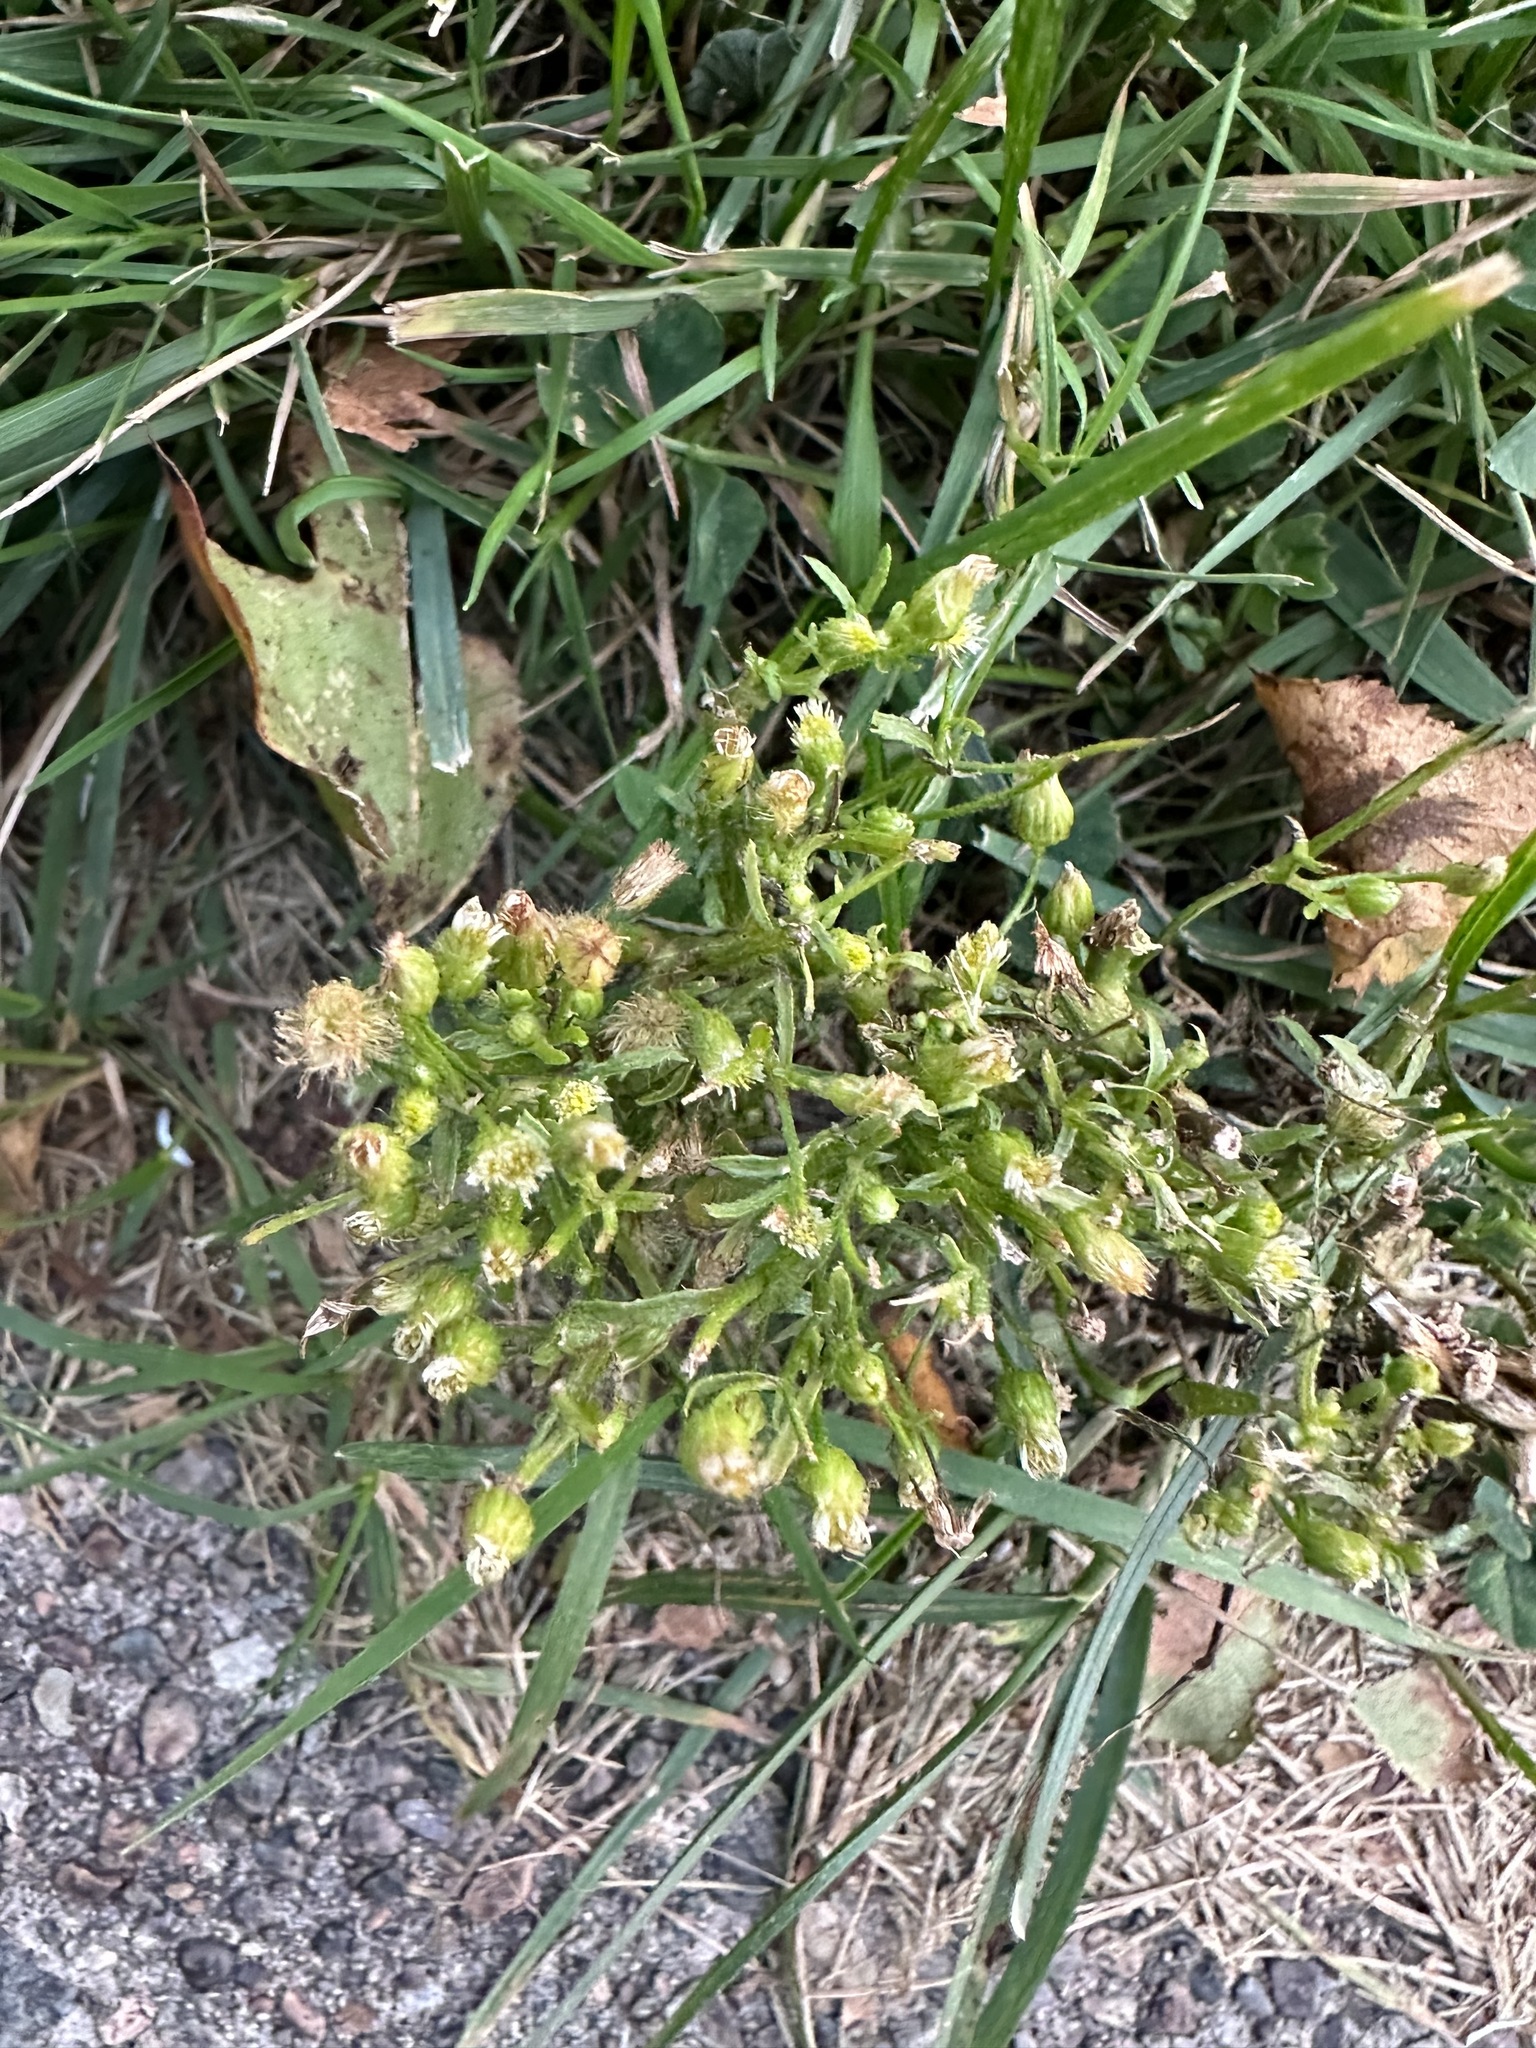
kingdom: Plantae
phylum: Tracheophyta
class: Magnoliopsida
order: Asterales
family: Asteraceae
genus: Erigeron
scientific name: Erigeron canadensis
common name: Canadian fleabane
